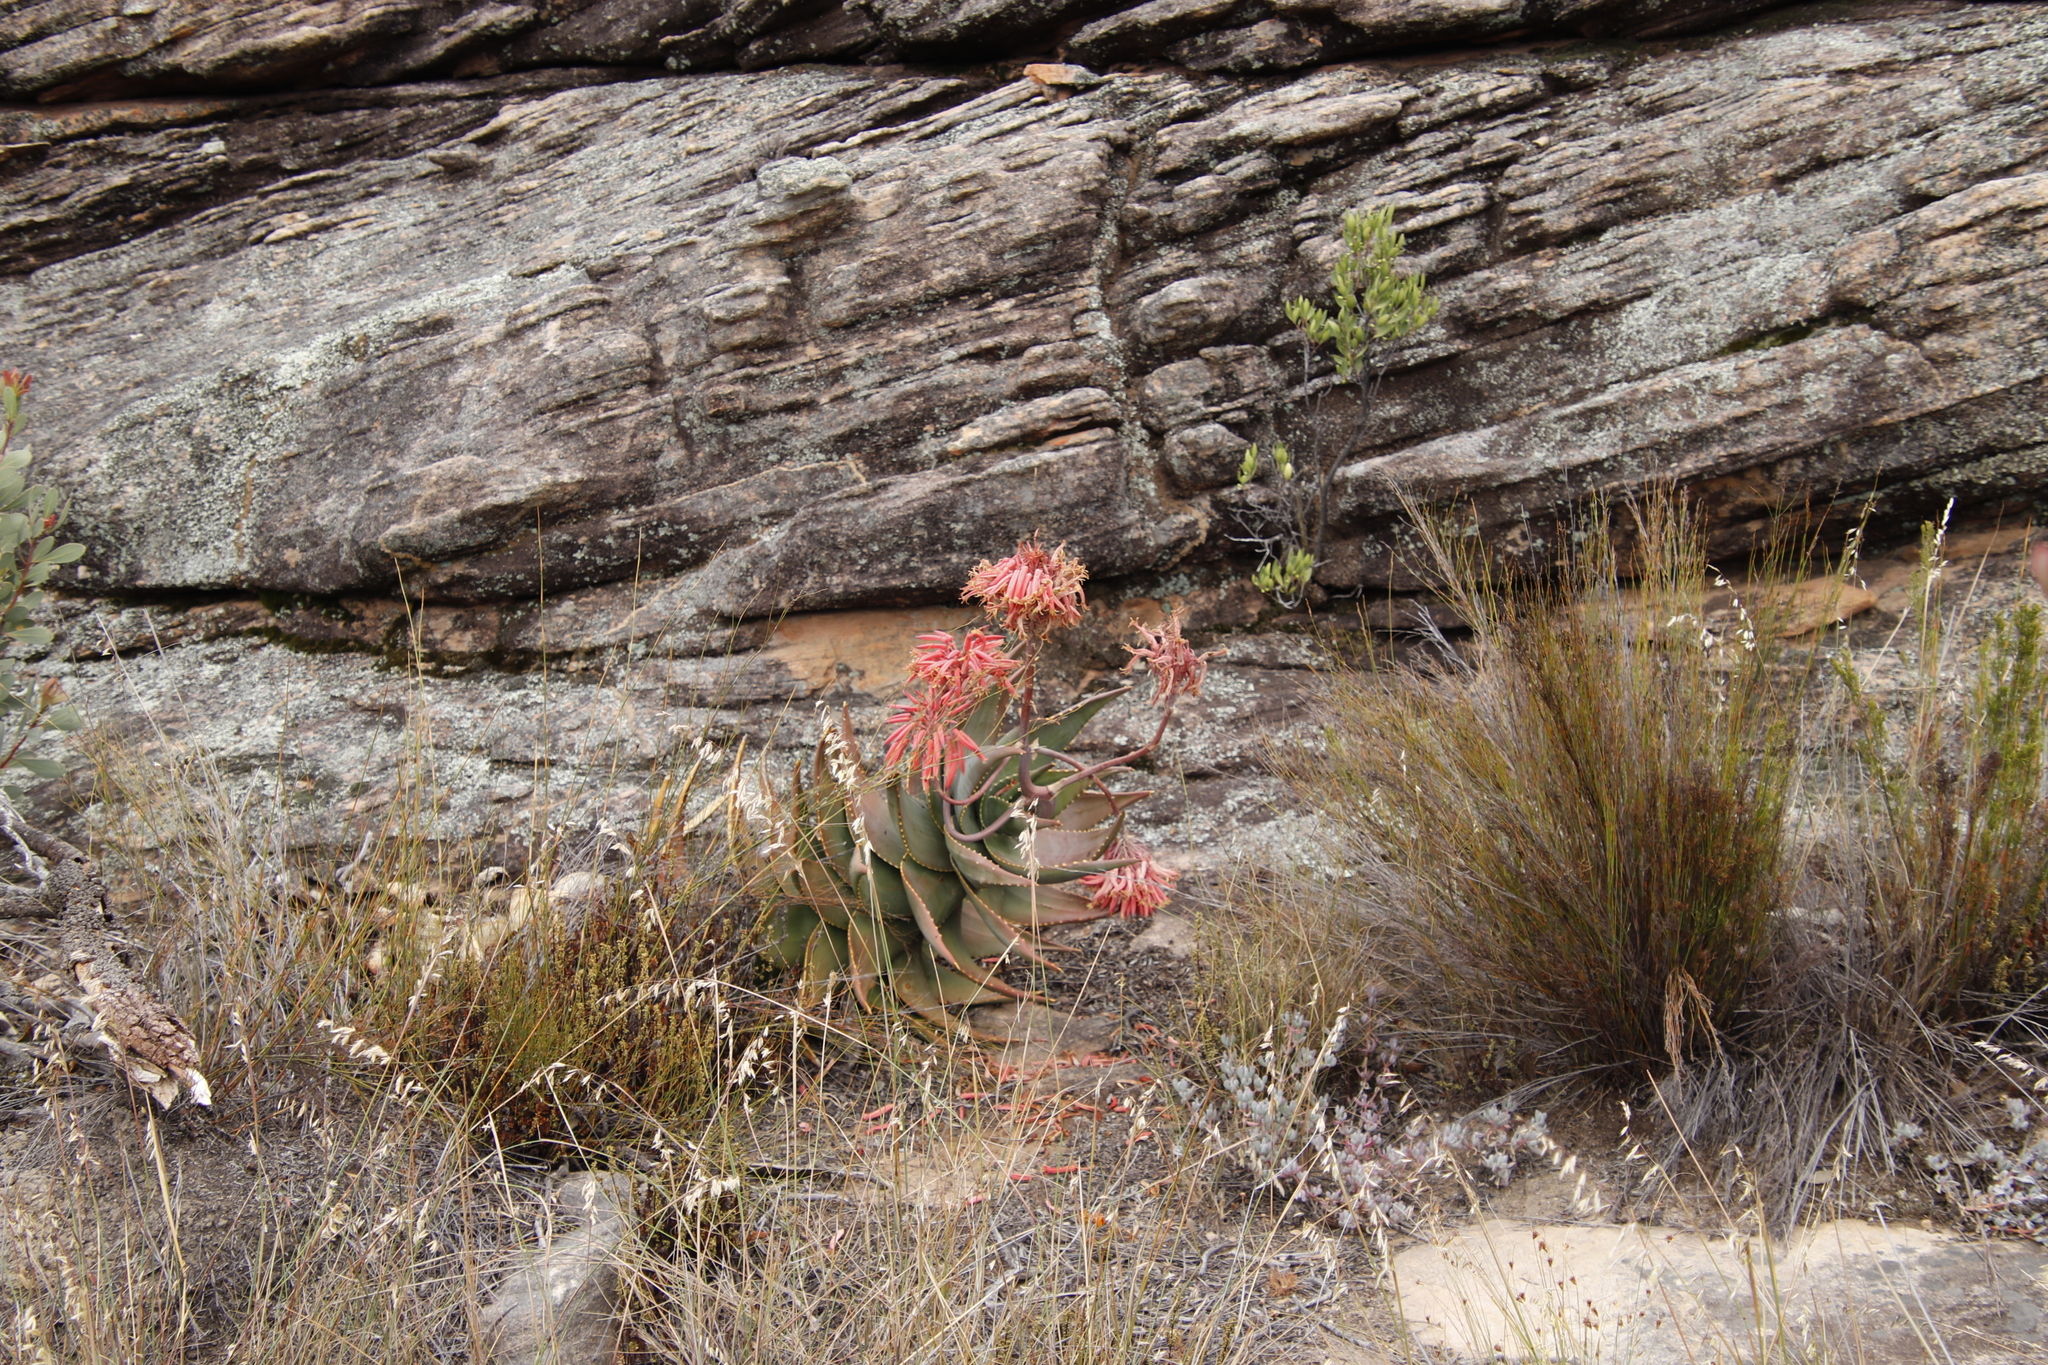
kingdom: Plantae
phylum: Tracheophyta
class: Liliopsida
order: Asparagales
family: Asphodelaceae
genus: Aloe
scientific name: Aloe perfoliata
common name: Mitra aloe
